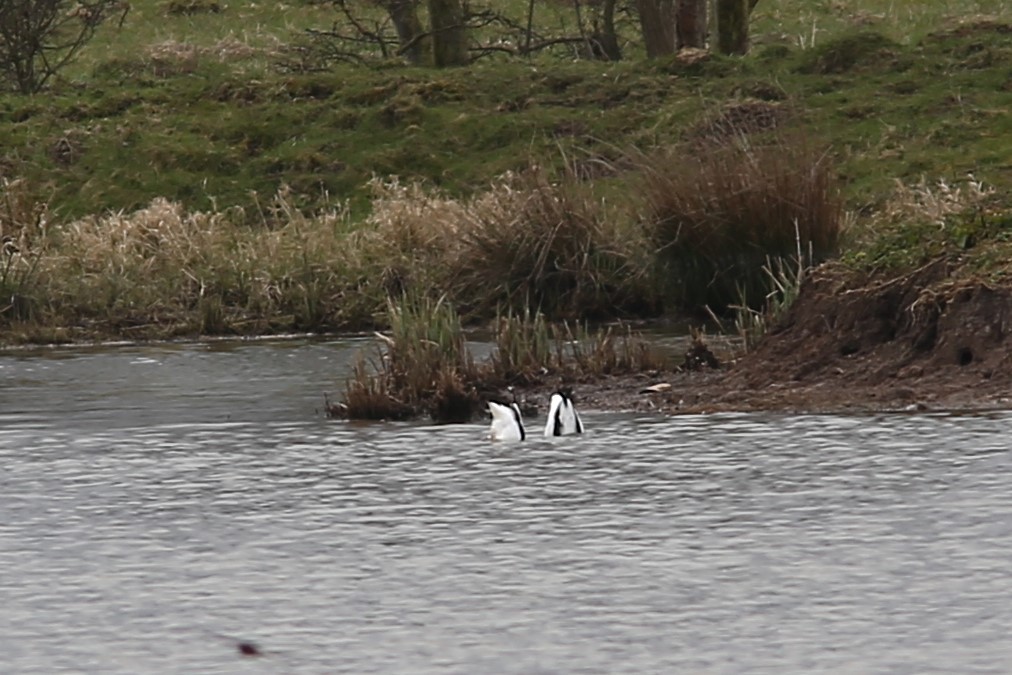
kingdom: Animalia
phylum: Chordata
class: Aves
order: Anseriformes
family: Anatidae
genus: Tadorna
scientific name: Tadorna tadorna
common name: Common shelduck
